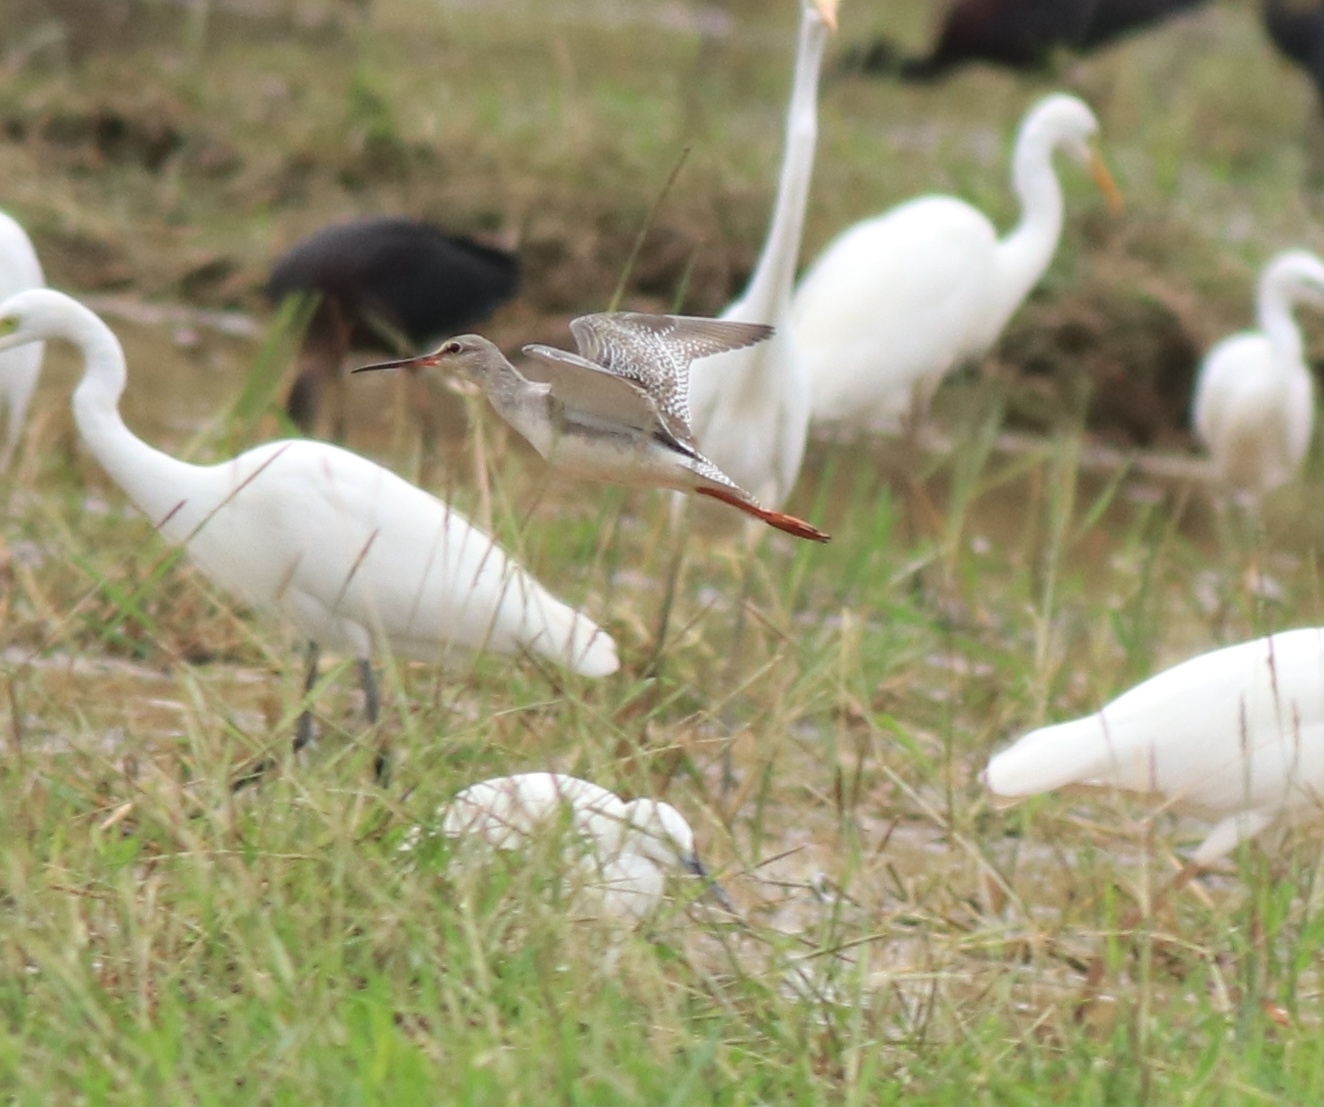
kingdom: Animalia
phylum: Chordata
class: Aves
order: Charadriiformes
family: Scolopacidae
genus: Tringa
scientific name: Tringa erythropus
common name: Spotted redshank
